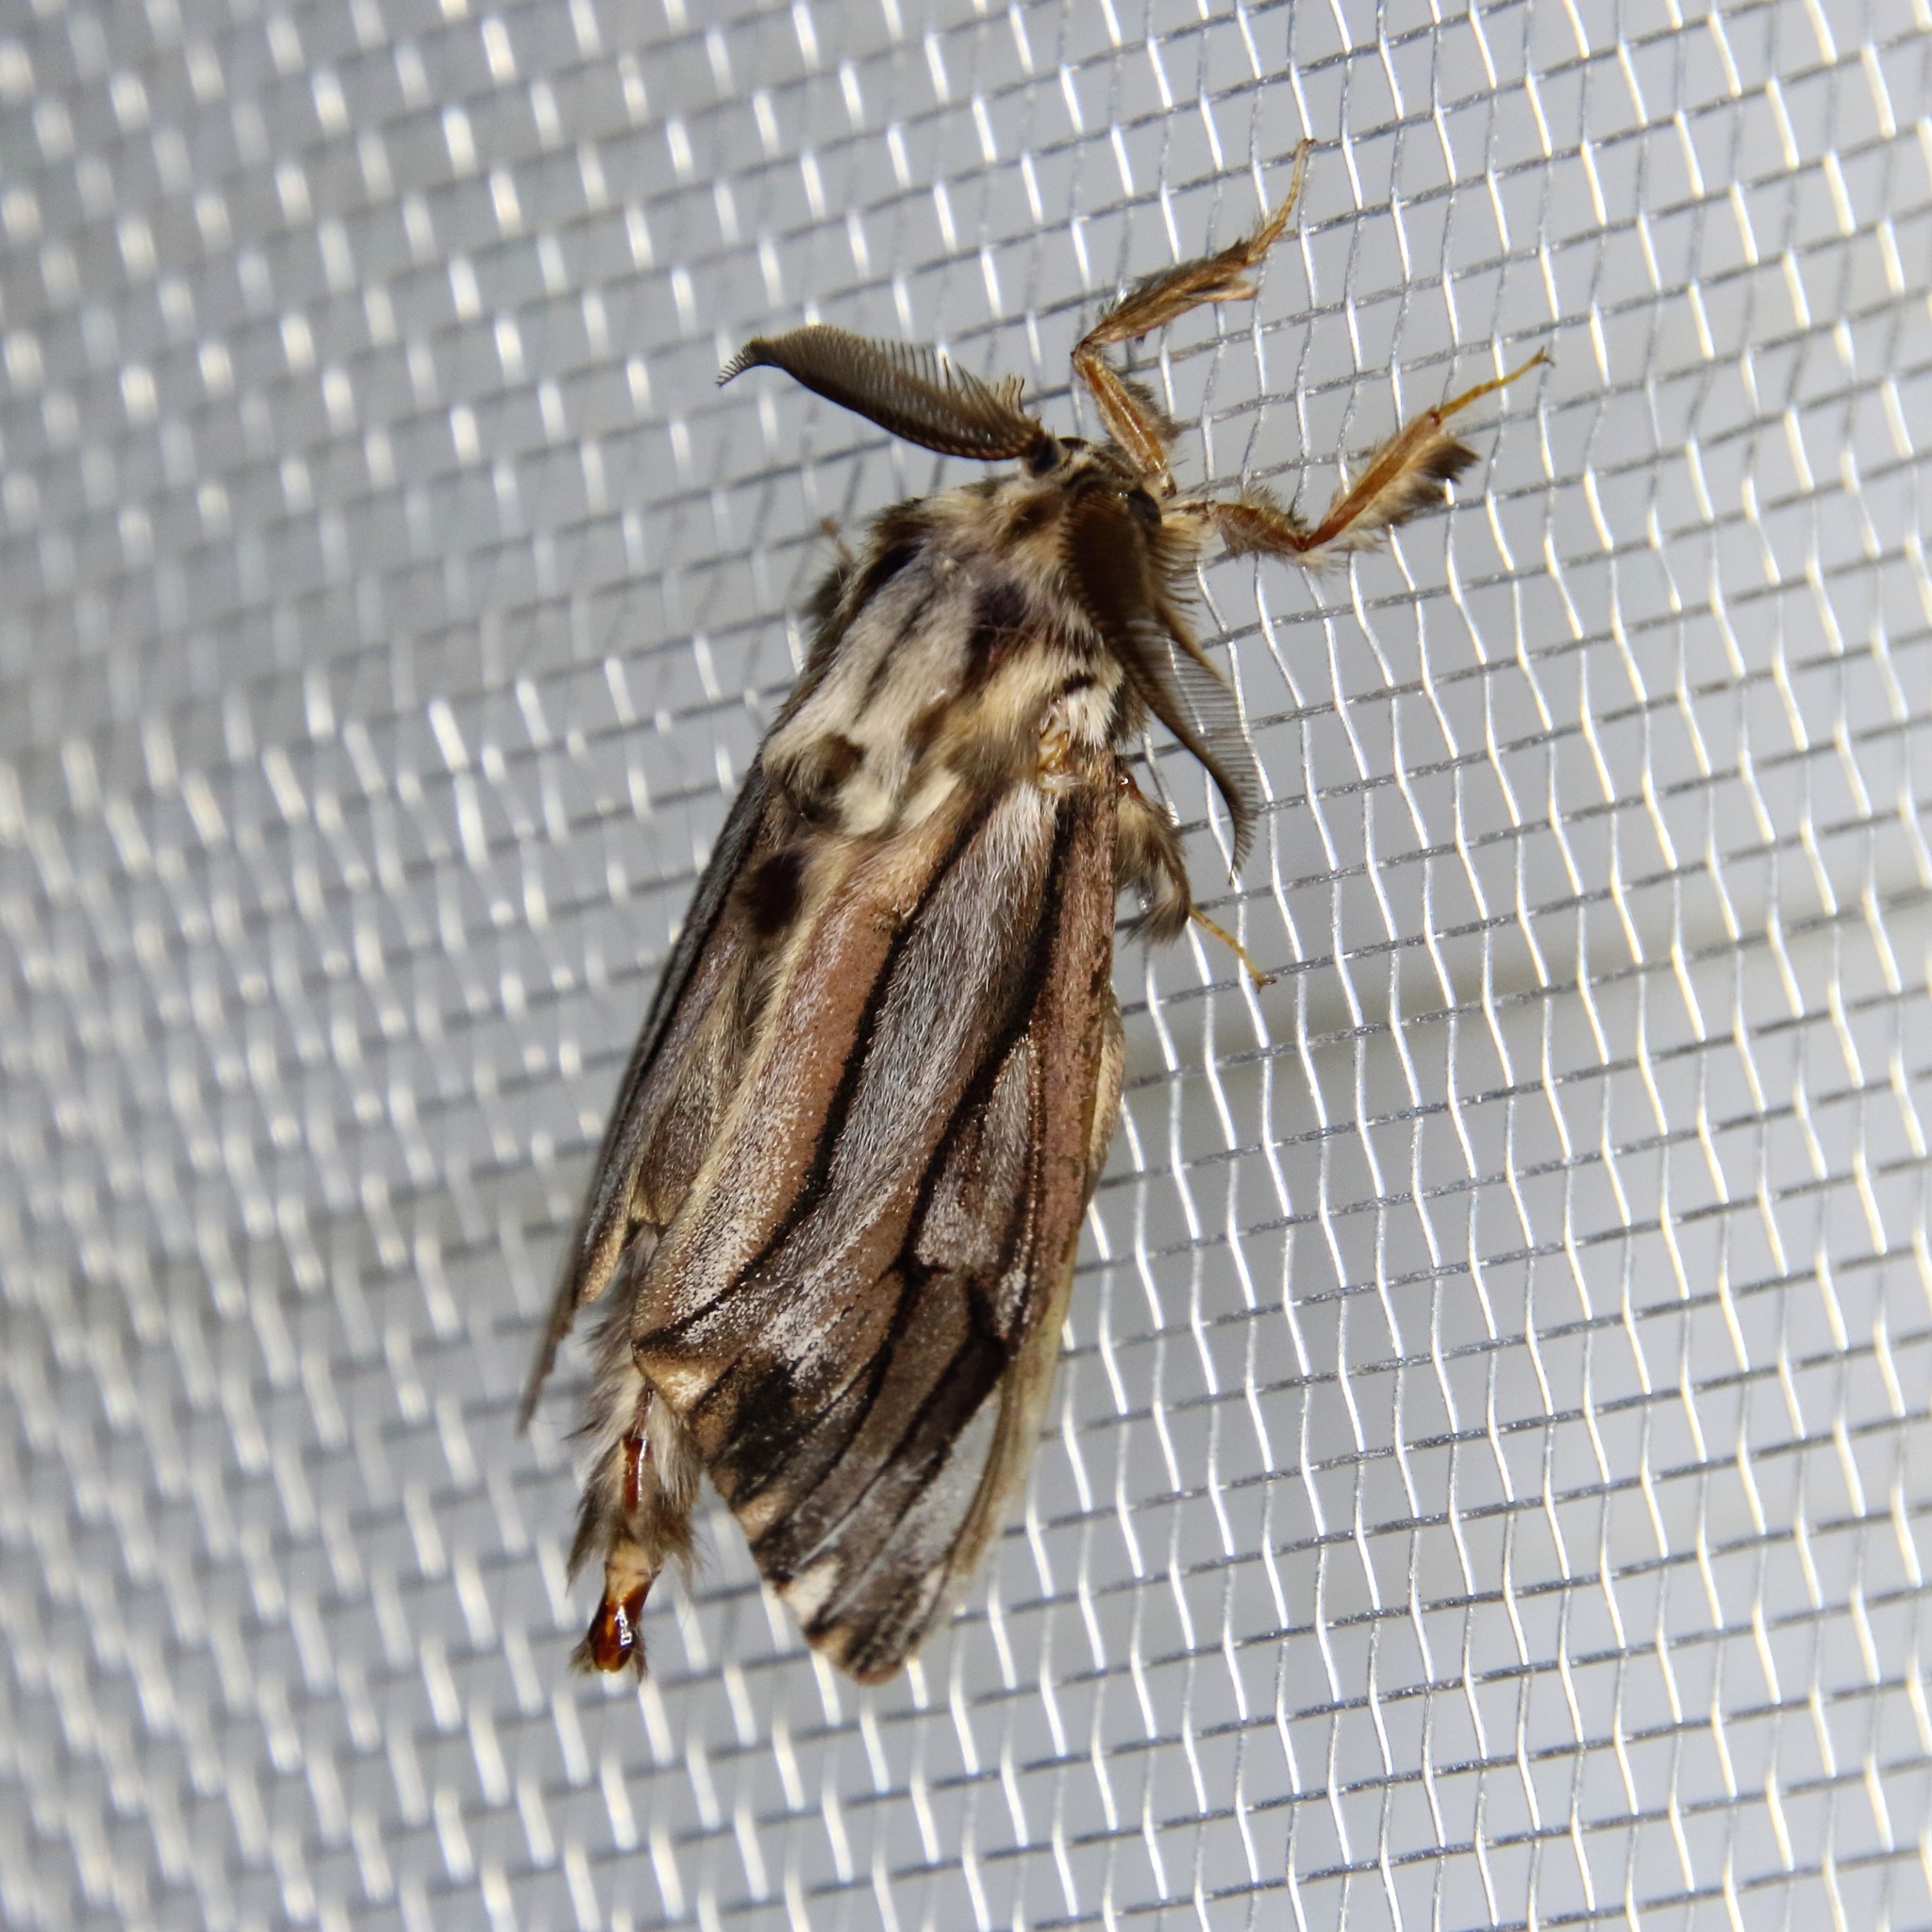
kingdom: Animalia
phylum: Arthropoda
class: Insecta
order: Lepidoptera
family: Psychidae
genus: Eumeta
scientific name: Eumeta variegatus
